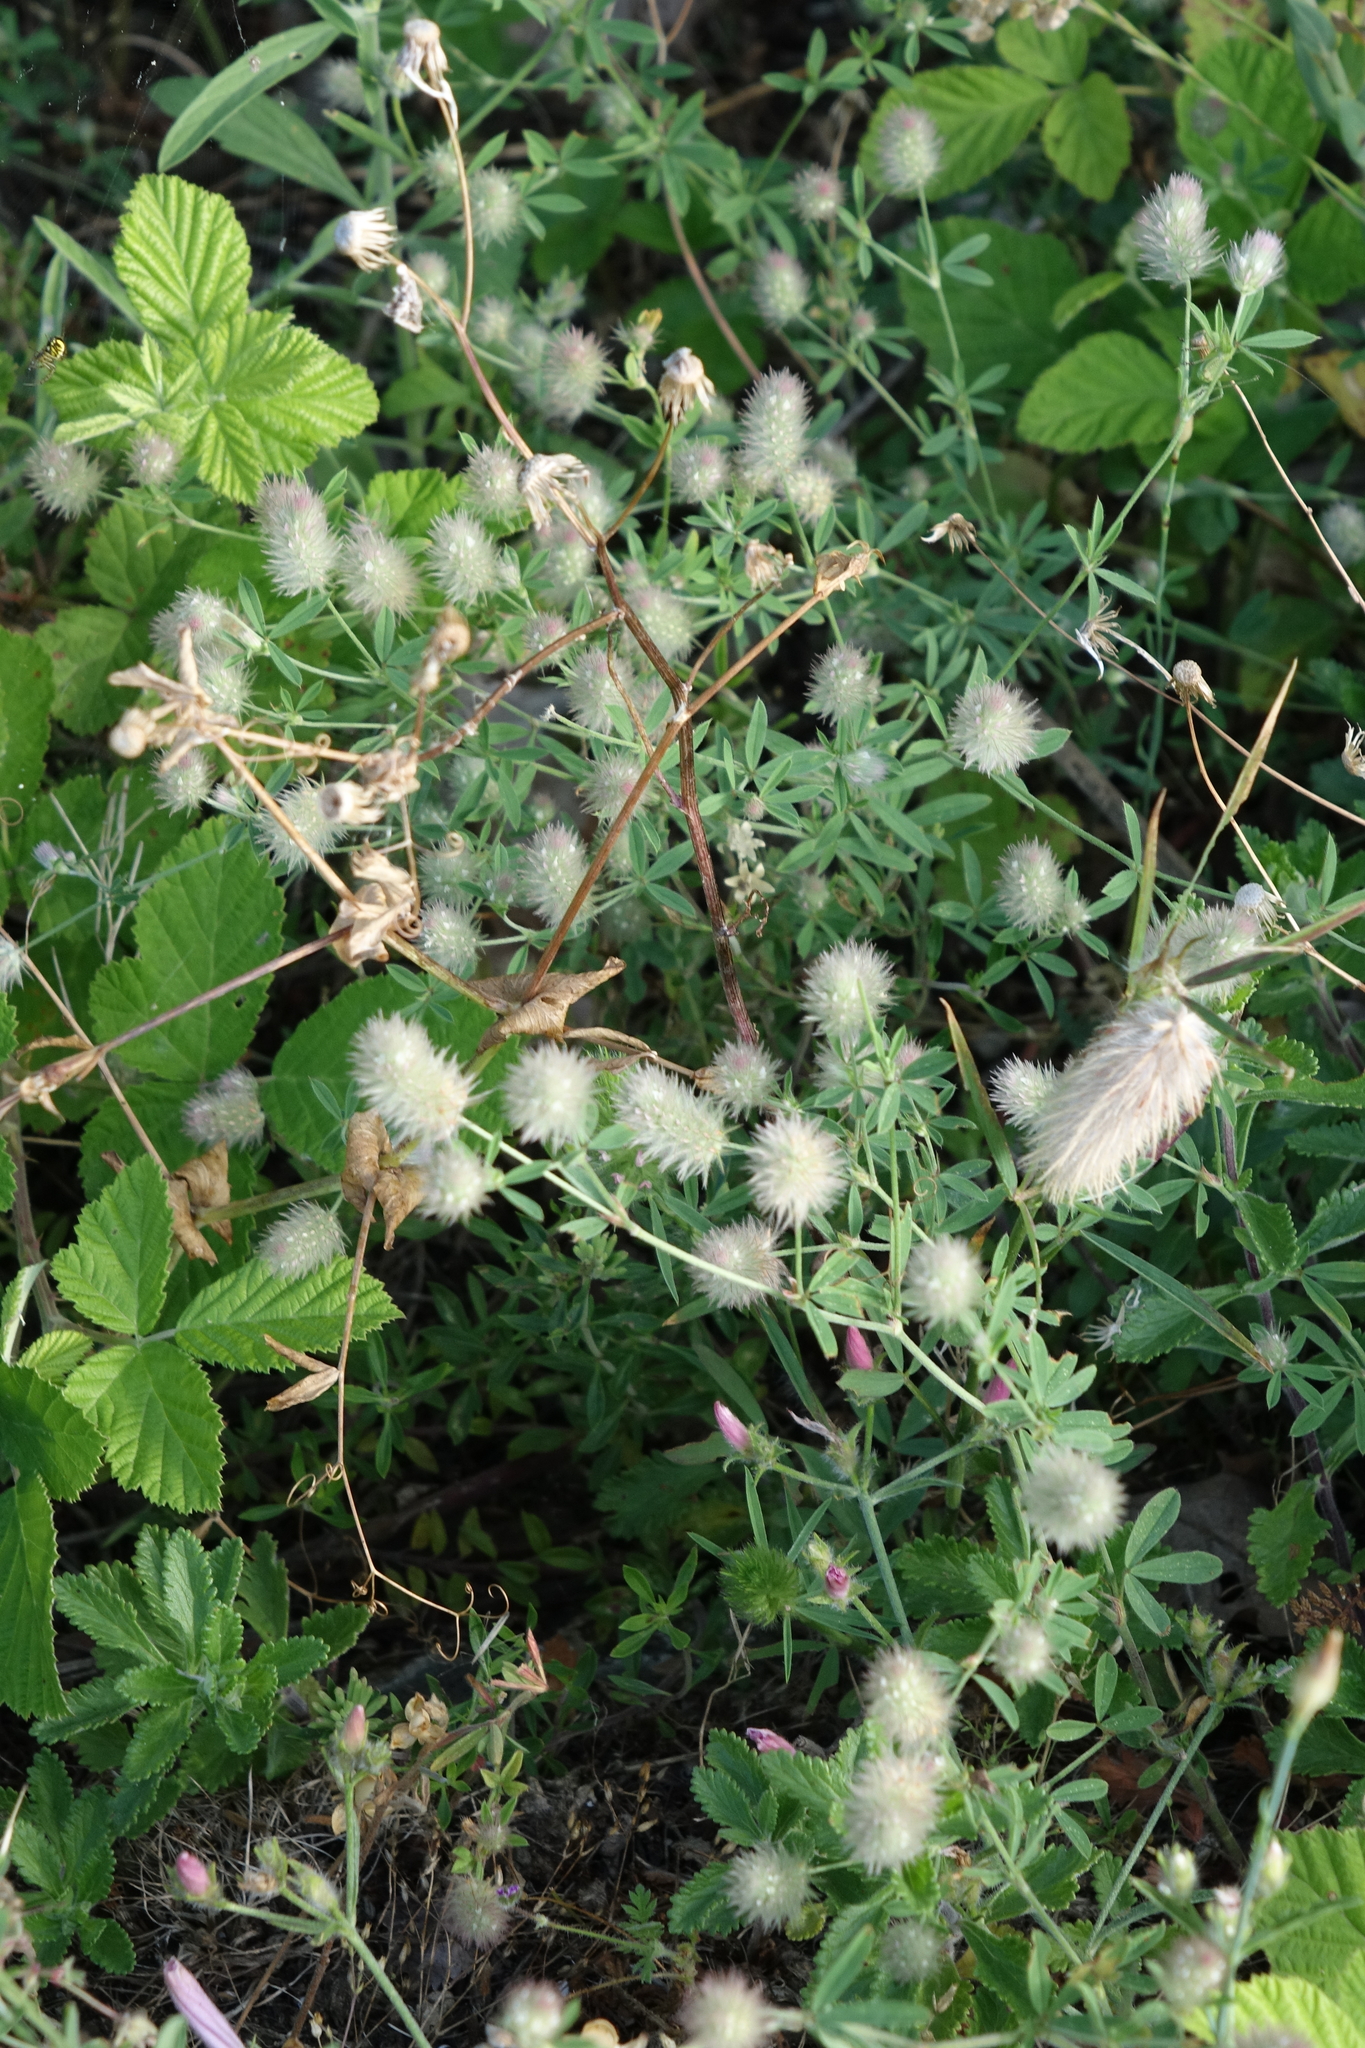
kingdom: Plantae
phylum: Tracheophyta
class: Magnoliopsida
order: Fabales
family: Fabaceae
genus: Trifolium
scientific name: Trifolium arvense
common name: Hare's-foot clover
